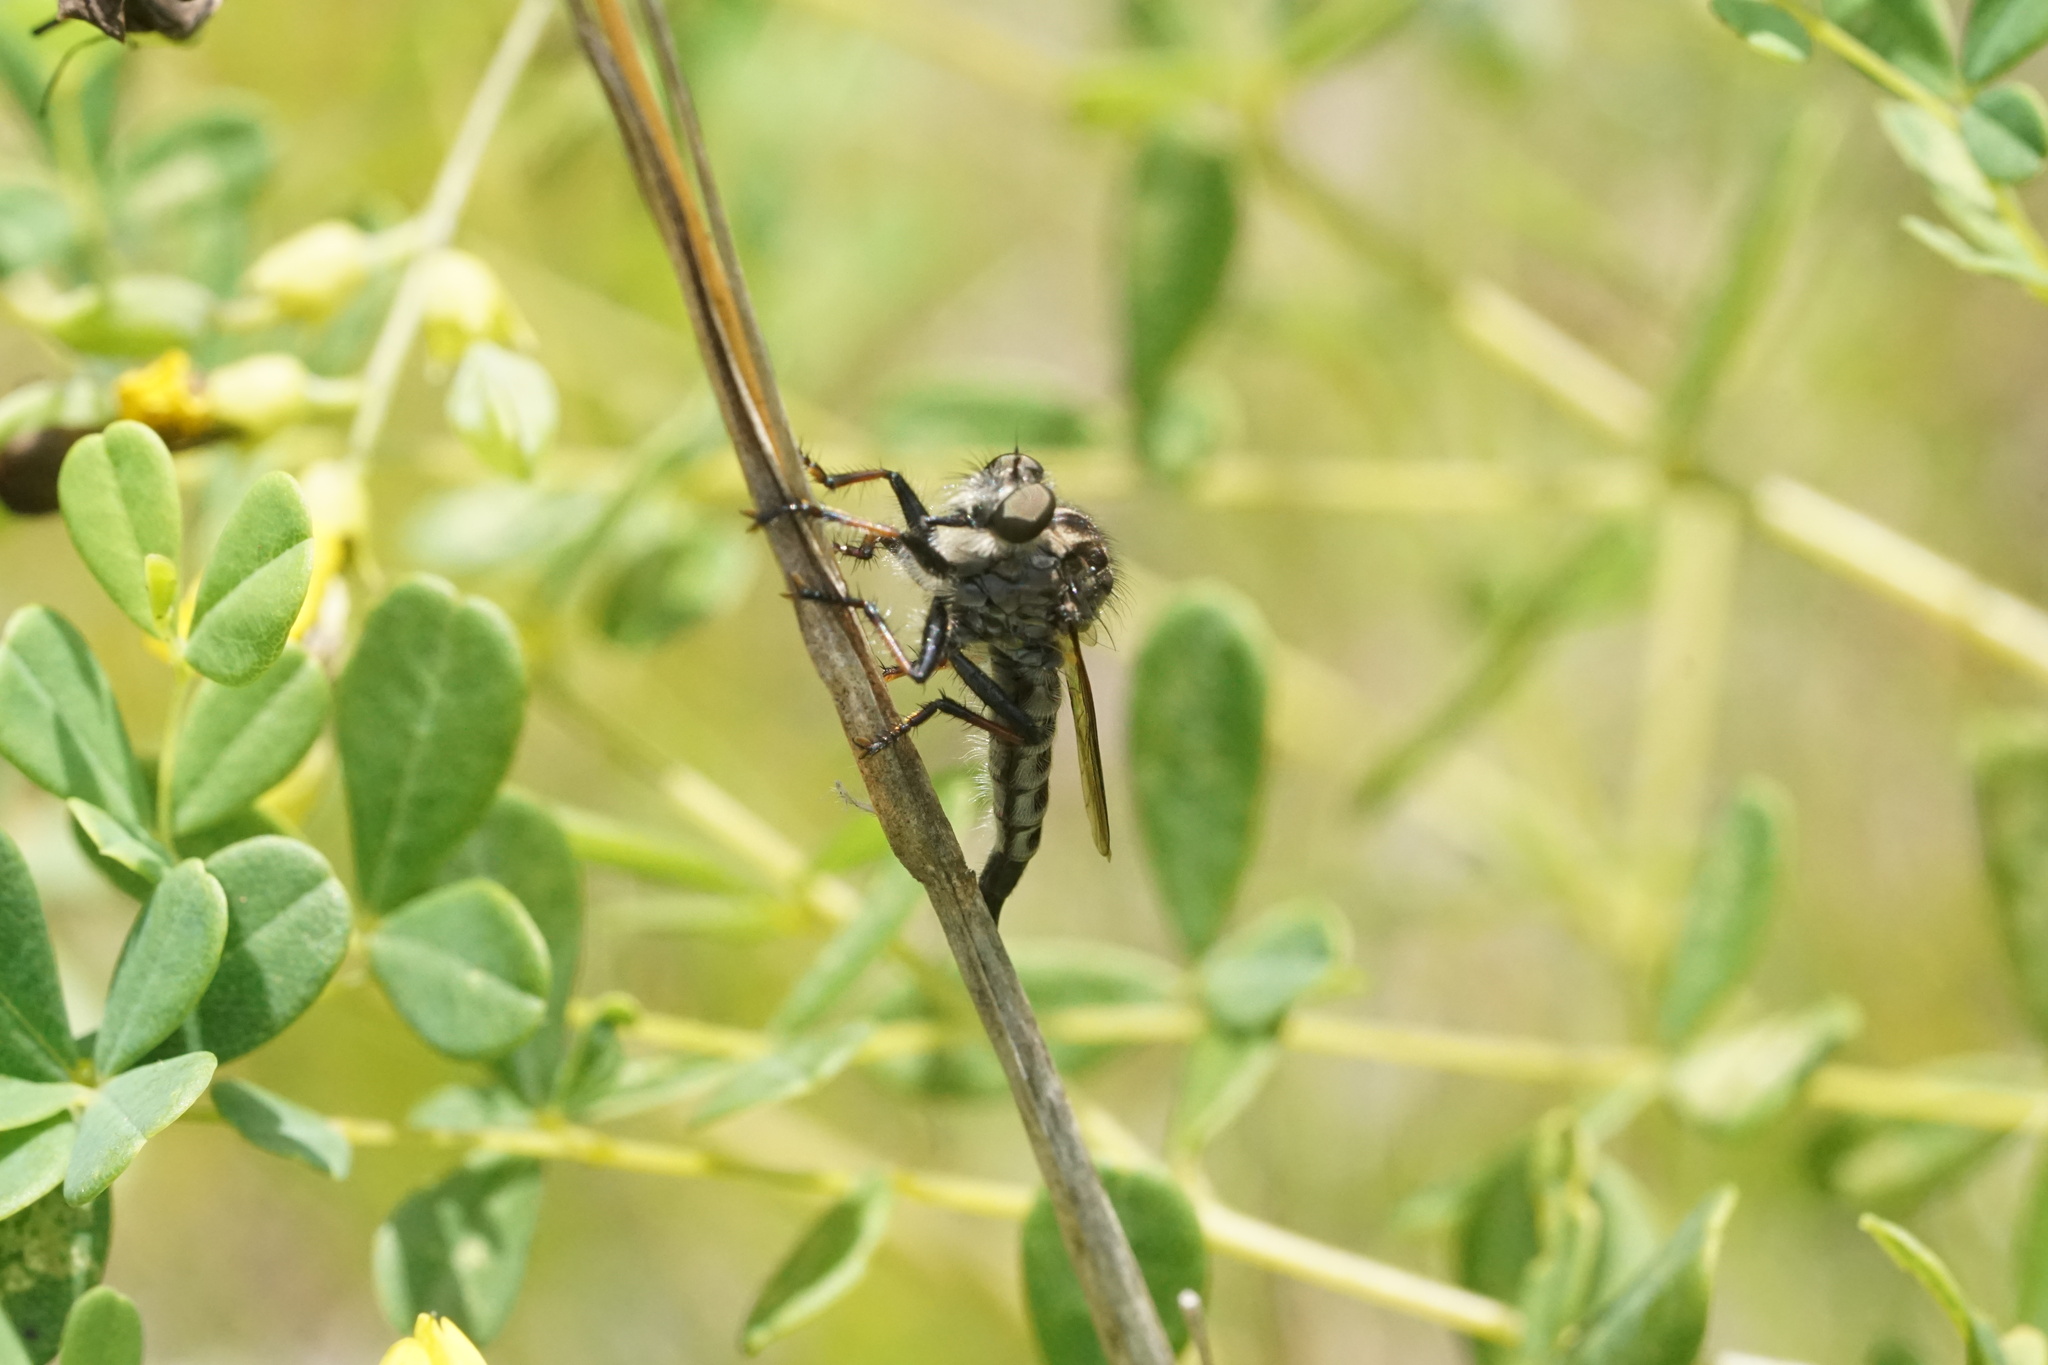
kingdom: Animalia
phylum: Arthropoda
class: Insecta
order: Diptera
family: Asilidae
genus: Efferia
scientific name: Efferia aestuans
